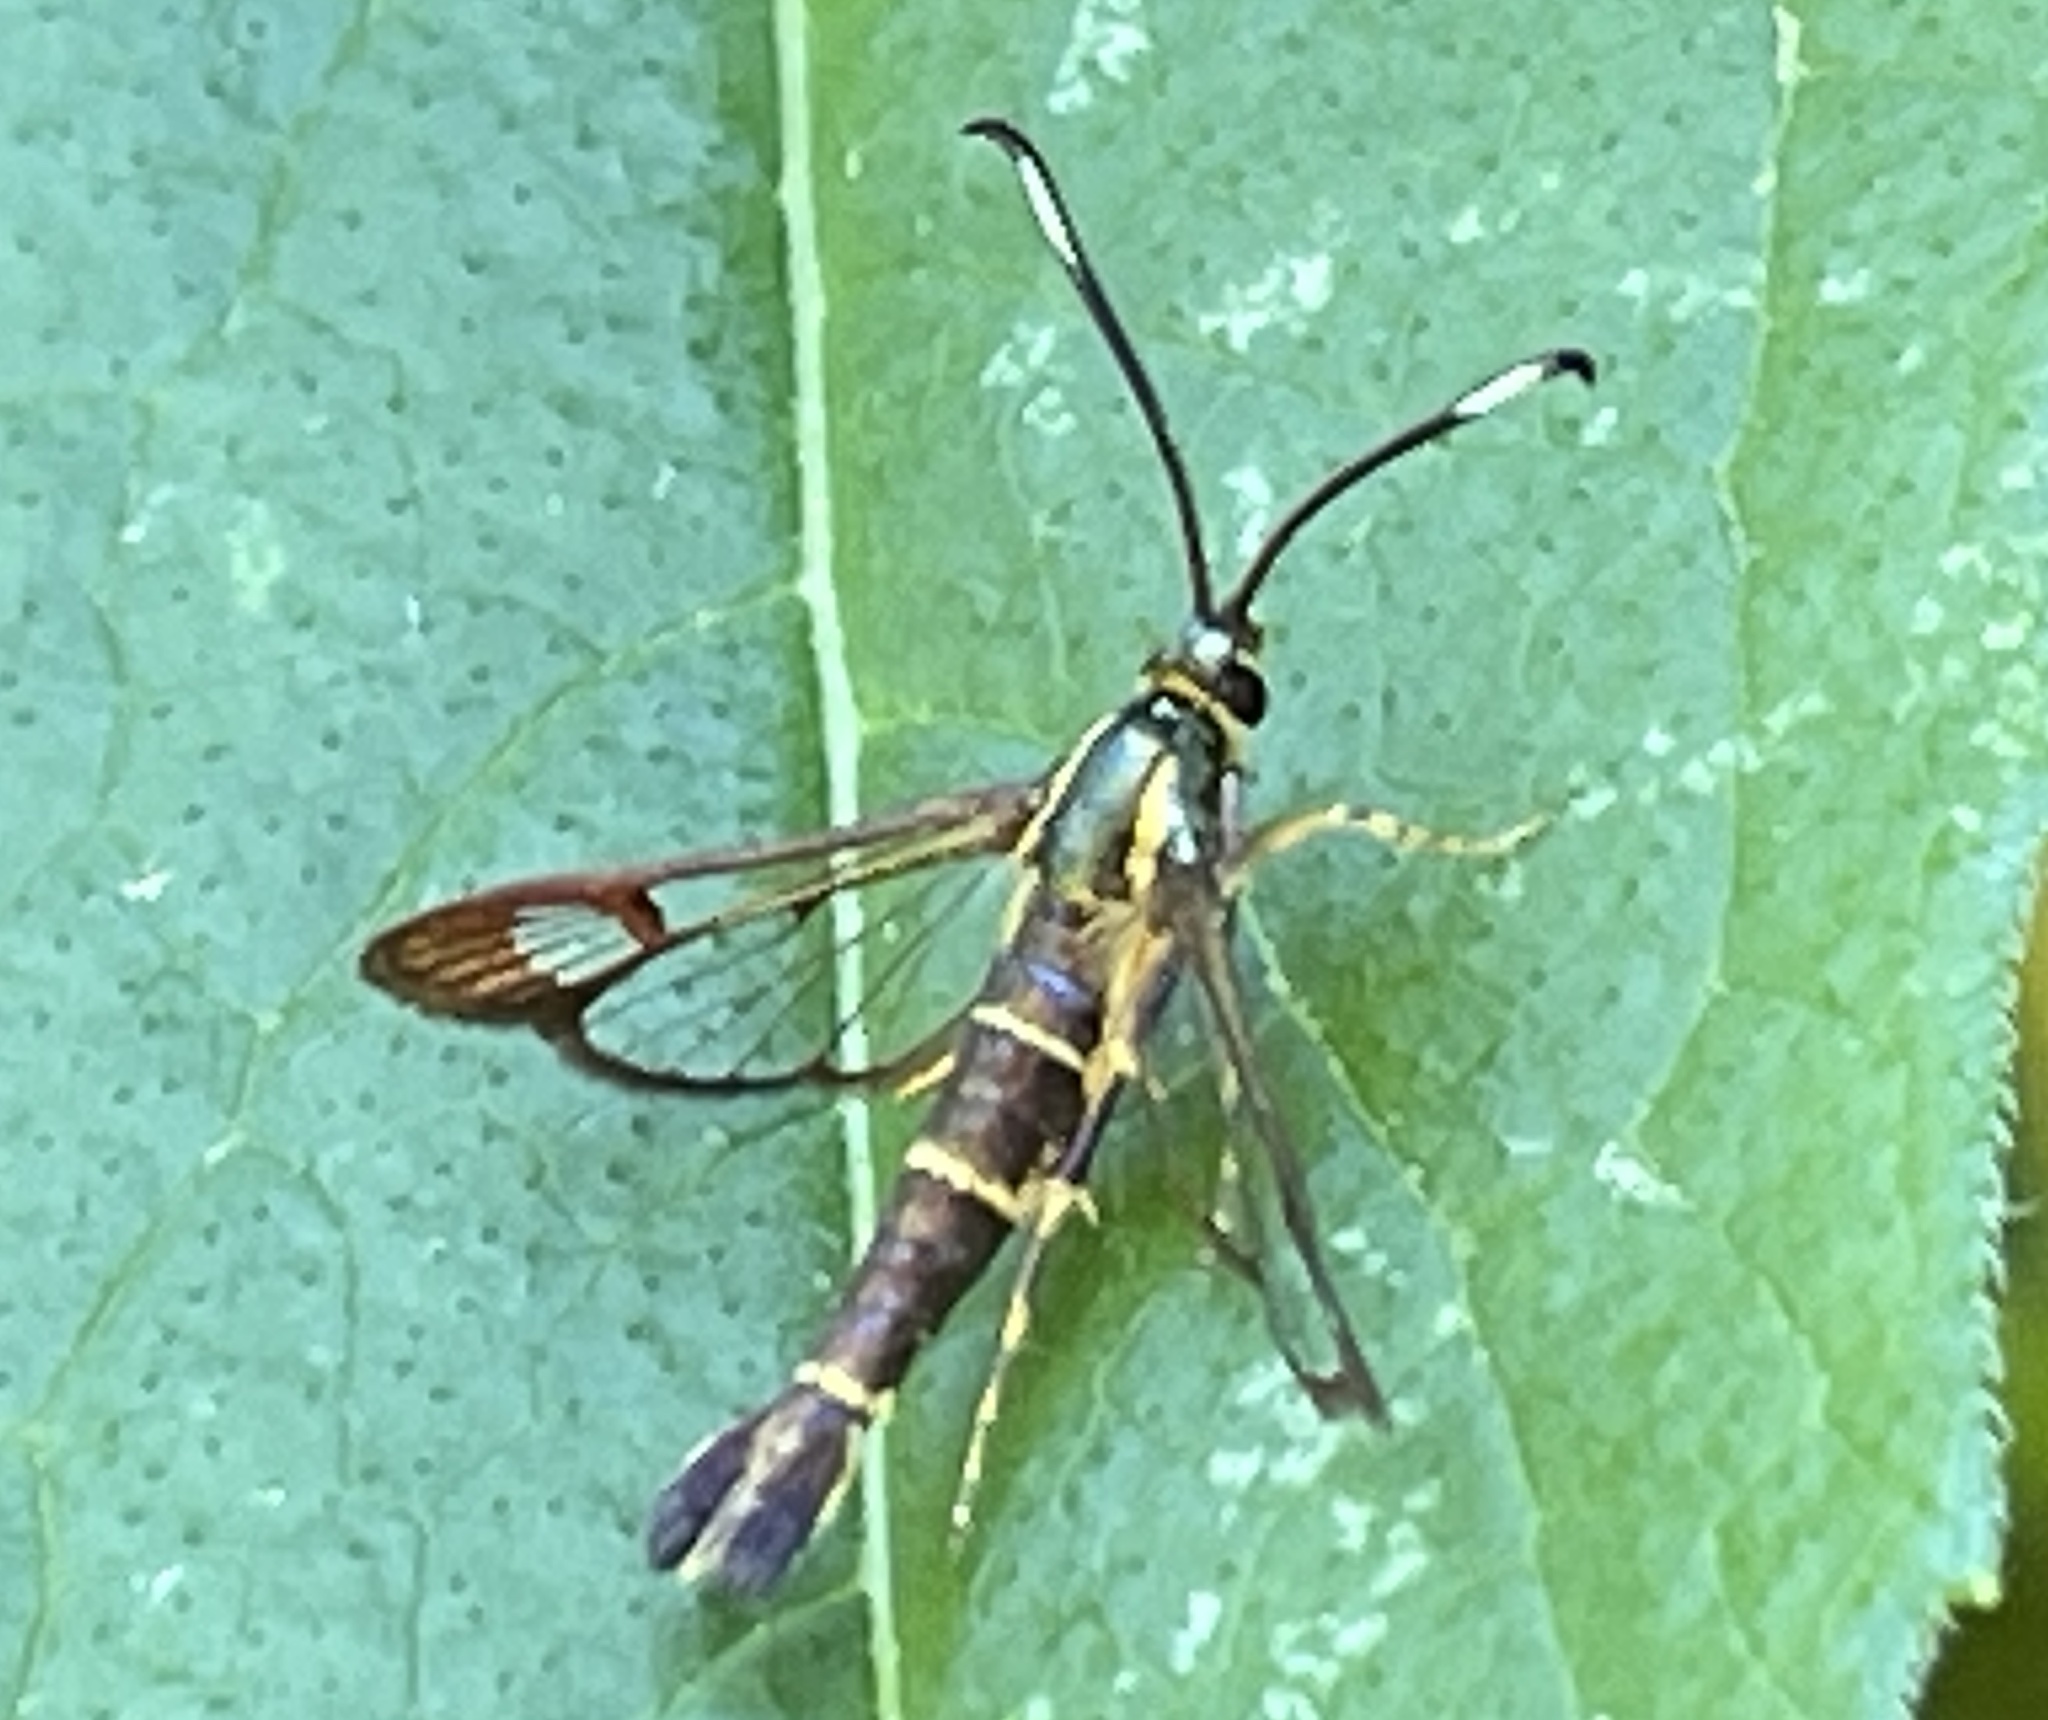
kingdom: Animalia
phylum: Arthropoda
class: Insecta
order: Lepidoptera
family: Sesiidae
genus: Carmenta
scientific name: Carmenta bassiformis
